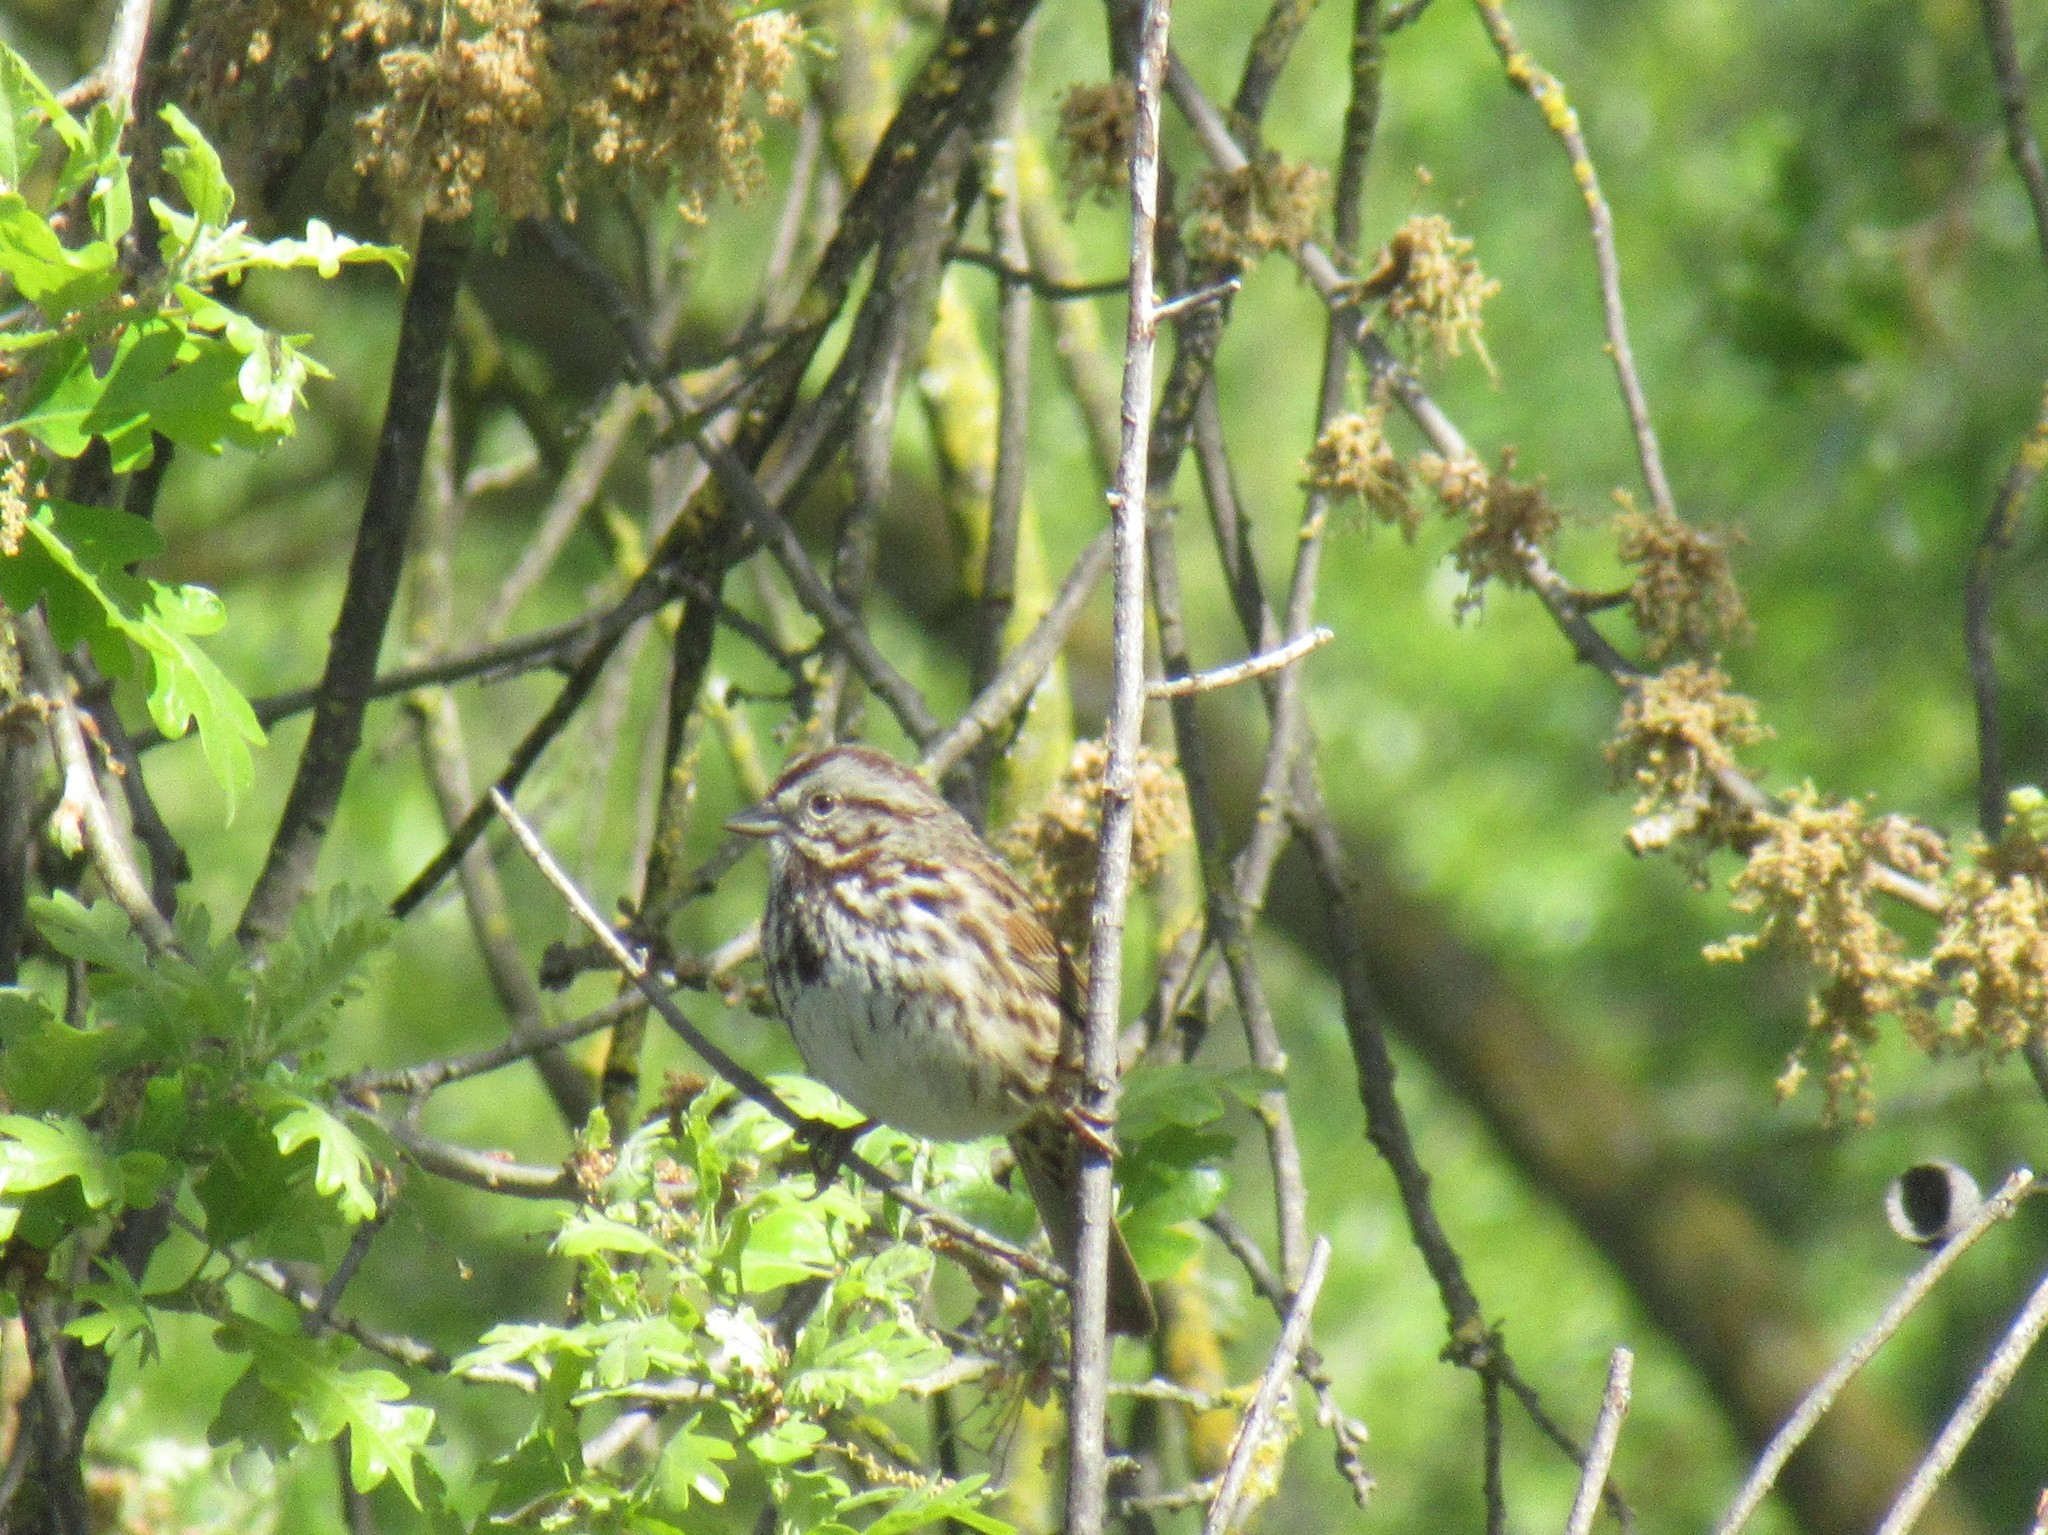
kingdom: Animalia
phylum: Chordata
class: Aves
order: Passeriformes
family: Passerellidae
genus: Melospiza
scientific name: Melospiza melodia
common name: Song sparrow
